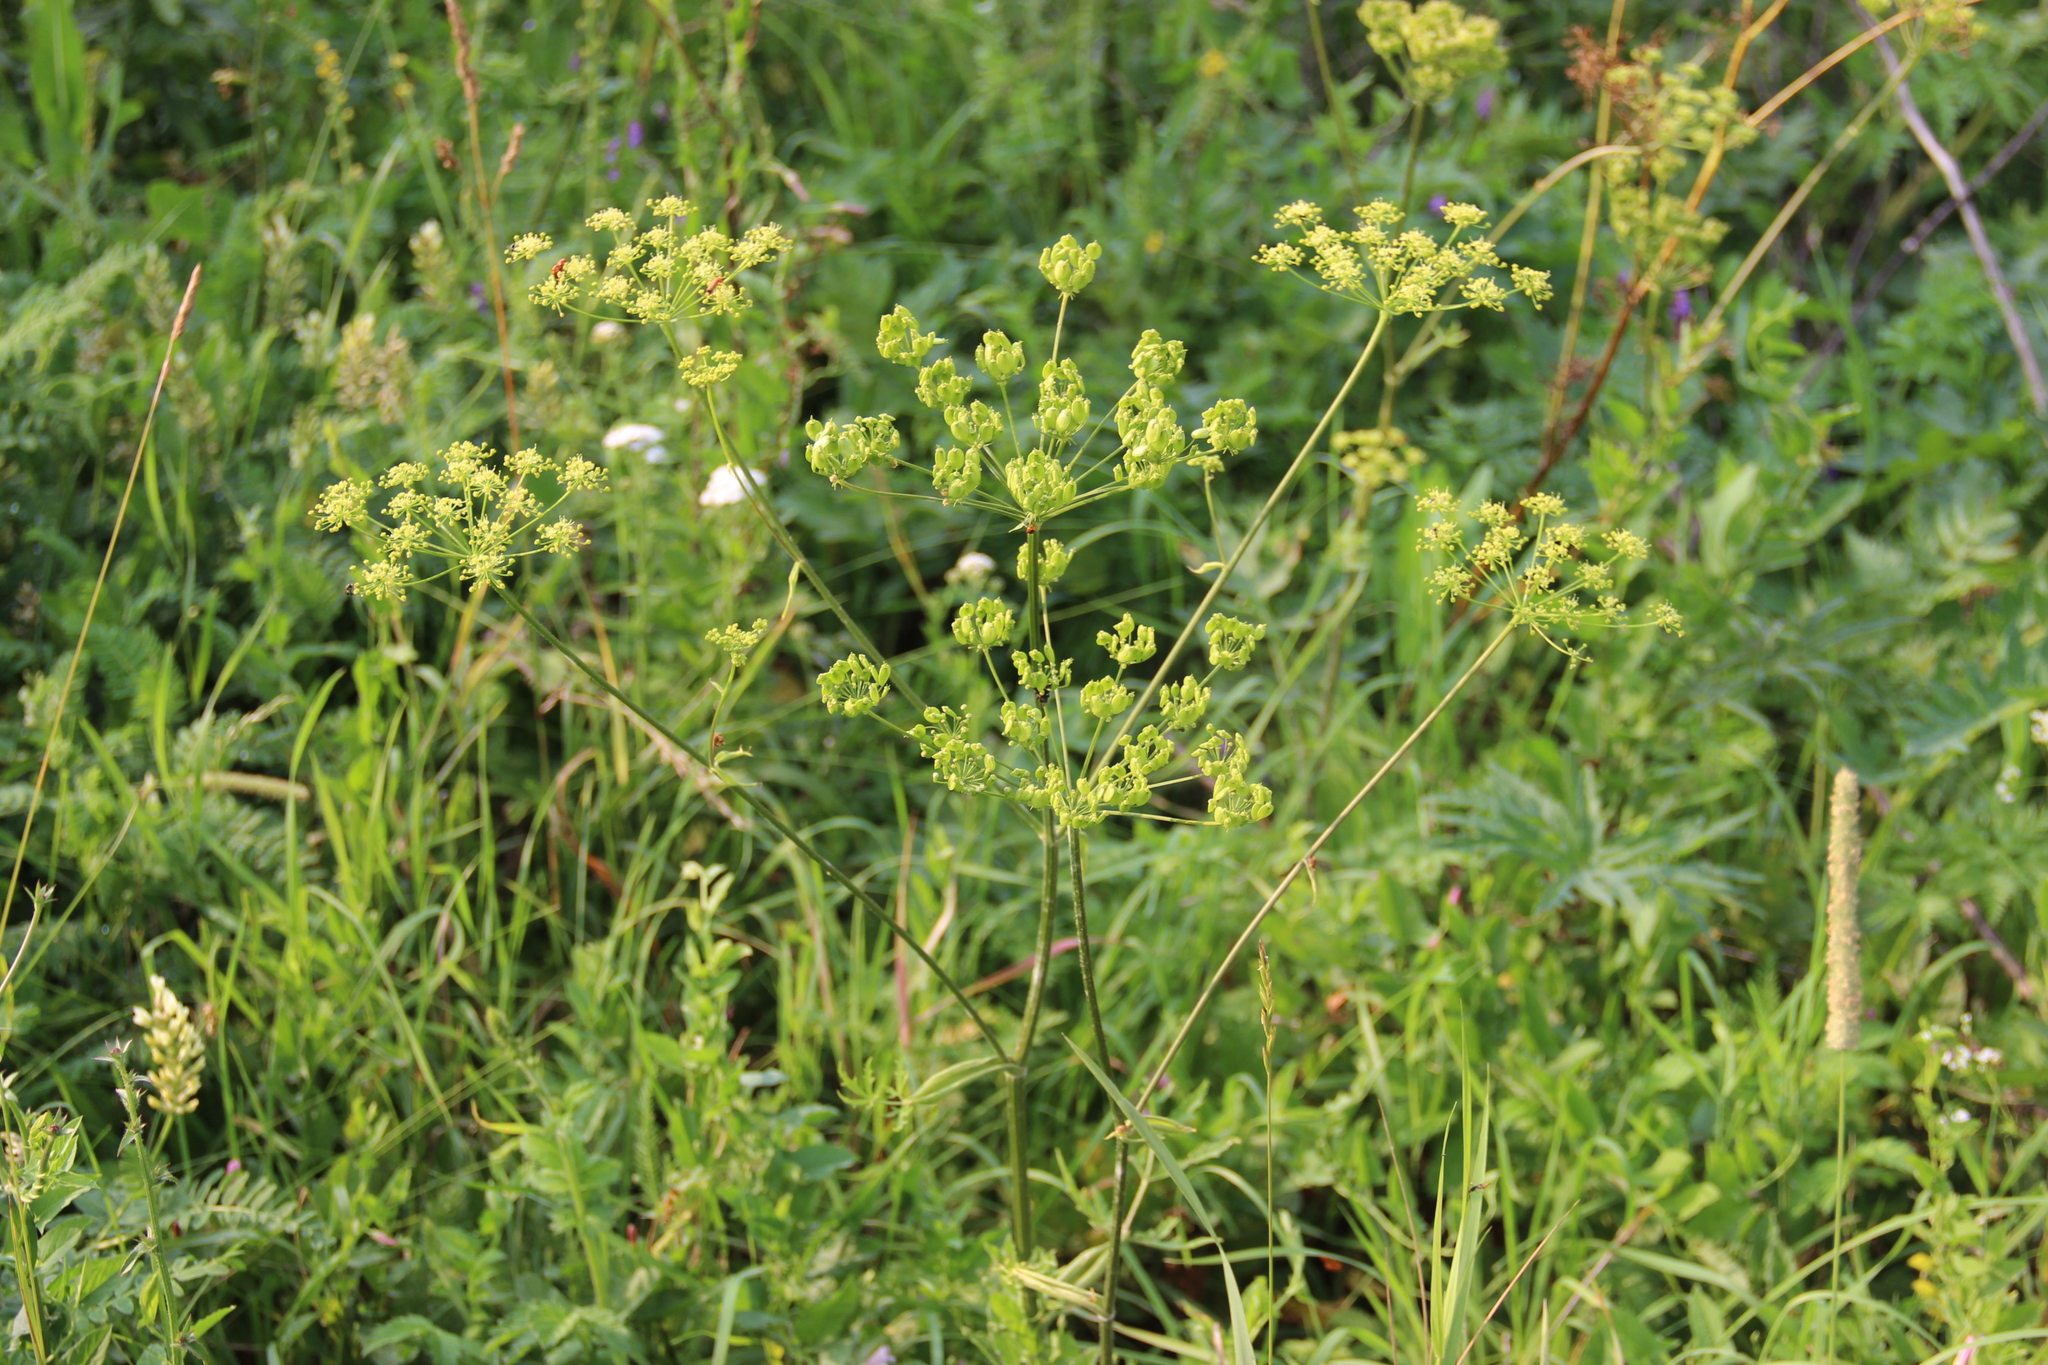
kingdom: Plantae
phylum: Tracheophyta
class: Magnoliopsida
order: Apiales
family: Apiaceae
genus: Heracleum
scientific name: Heracleum sphondylium
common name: Hogweed
